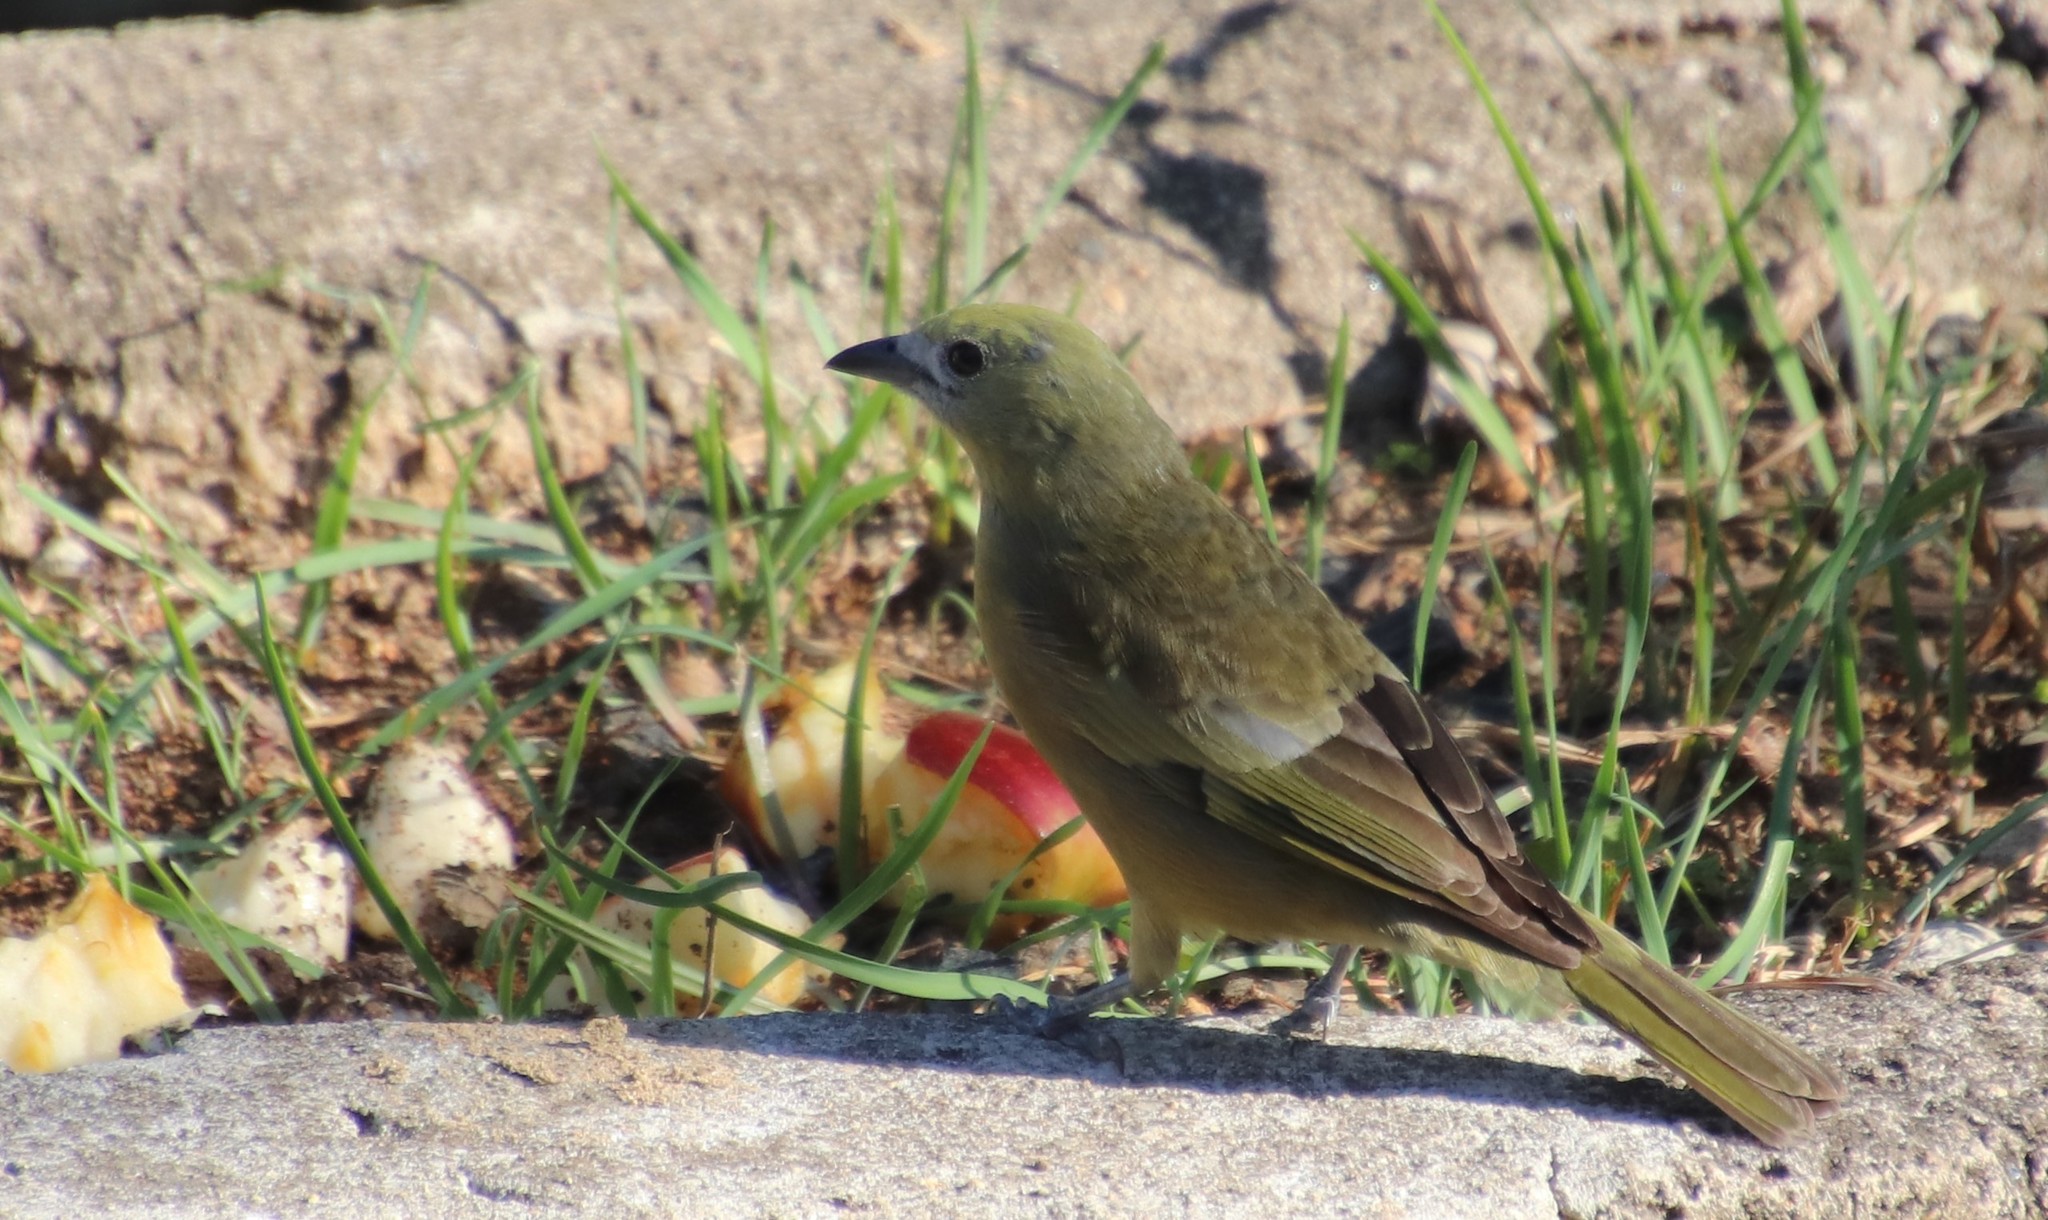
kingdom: Animalia
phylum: Chordata
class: Aves
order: Passeriformes
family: Thraupidae
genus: Thraupis
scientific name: Thraupis palmarum
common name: Palm tanager
